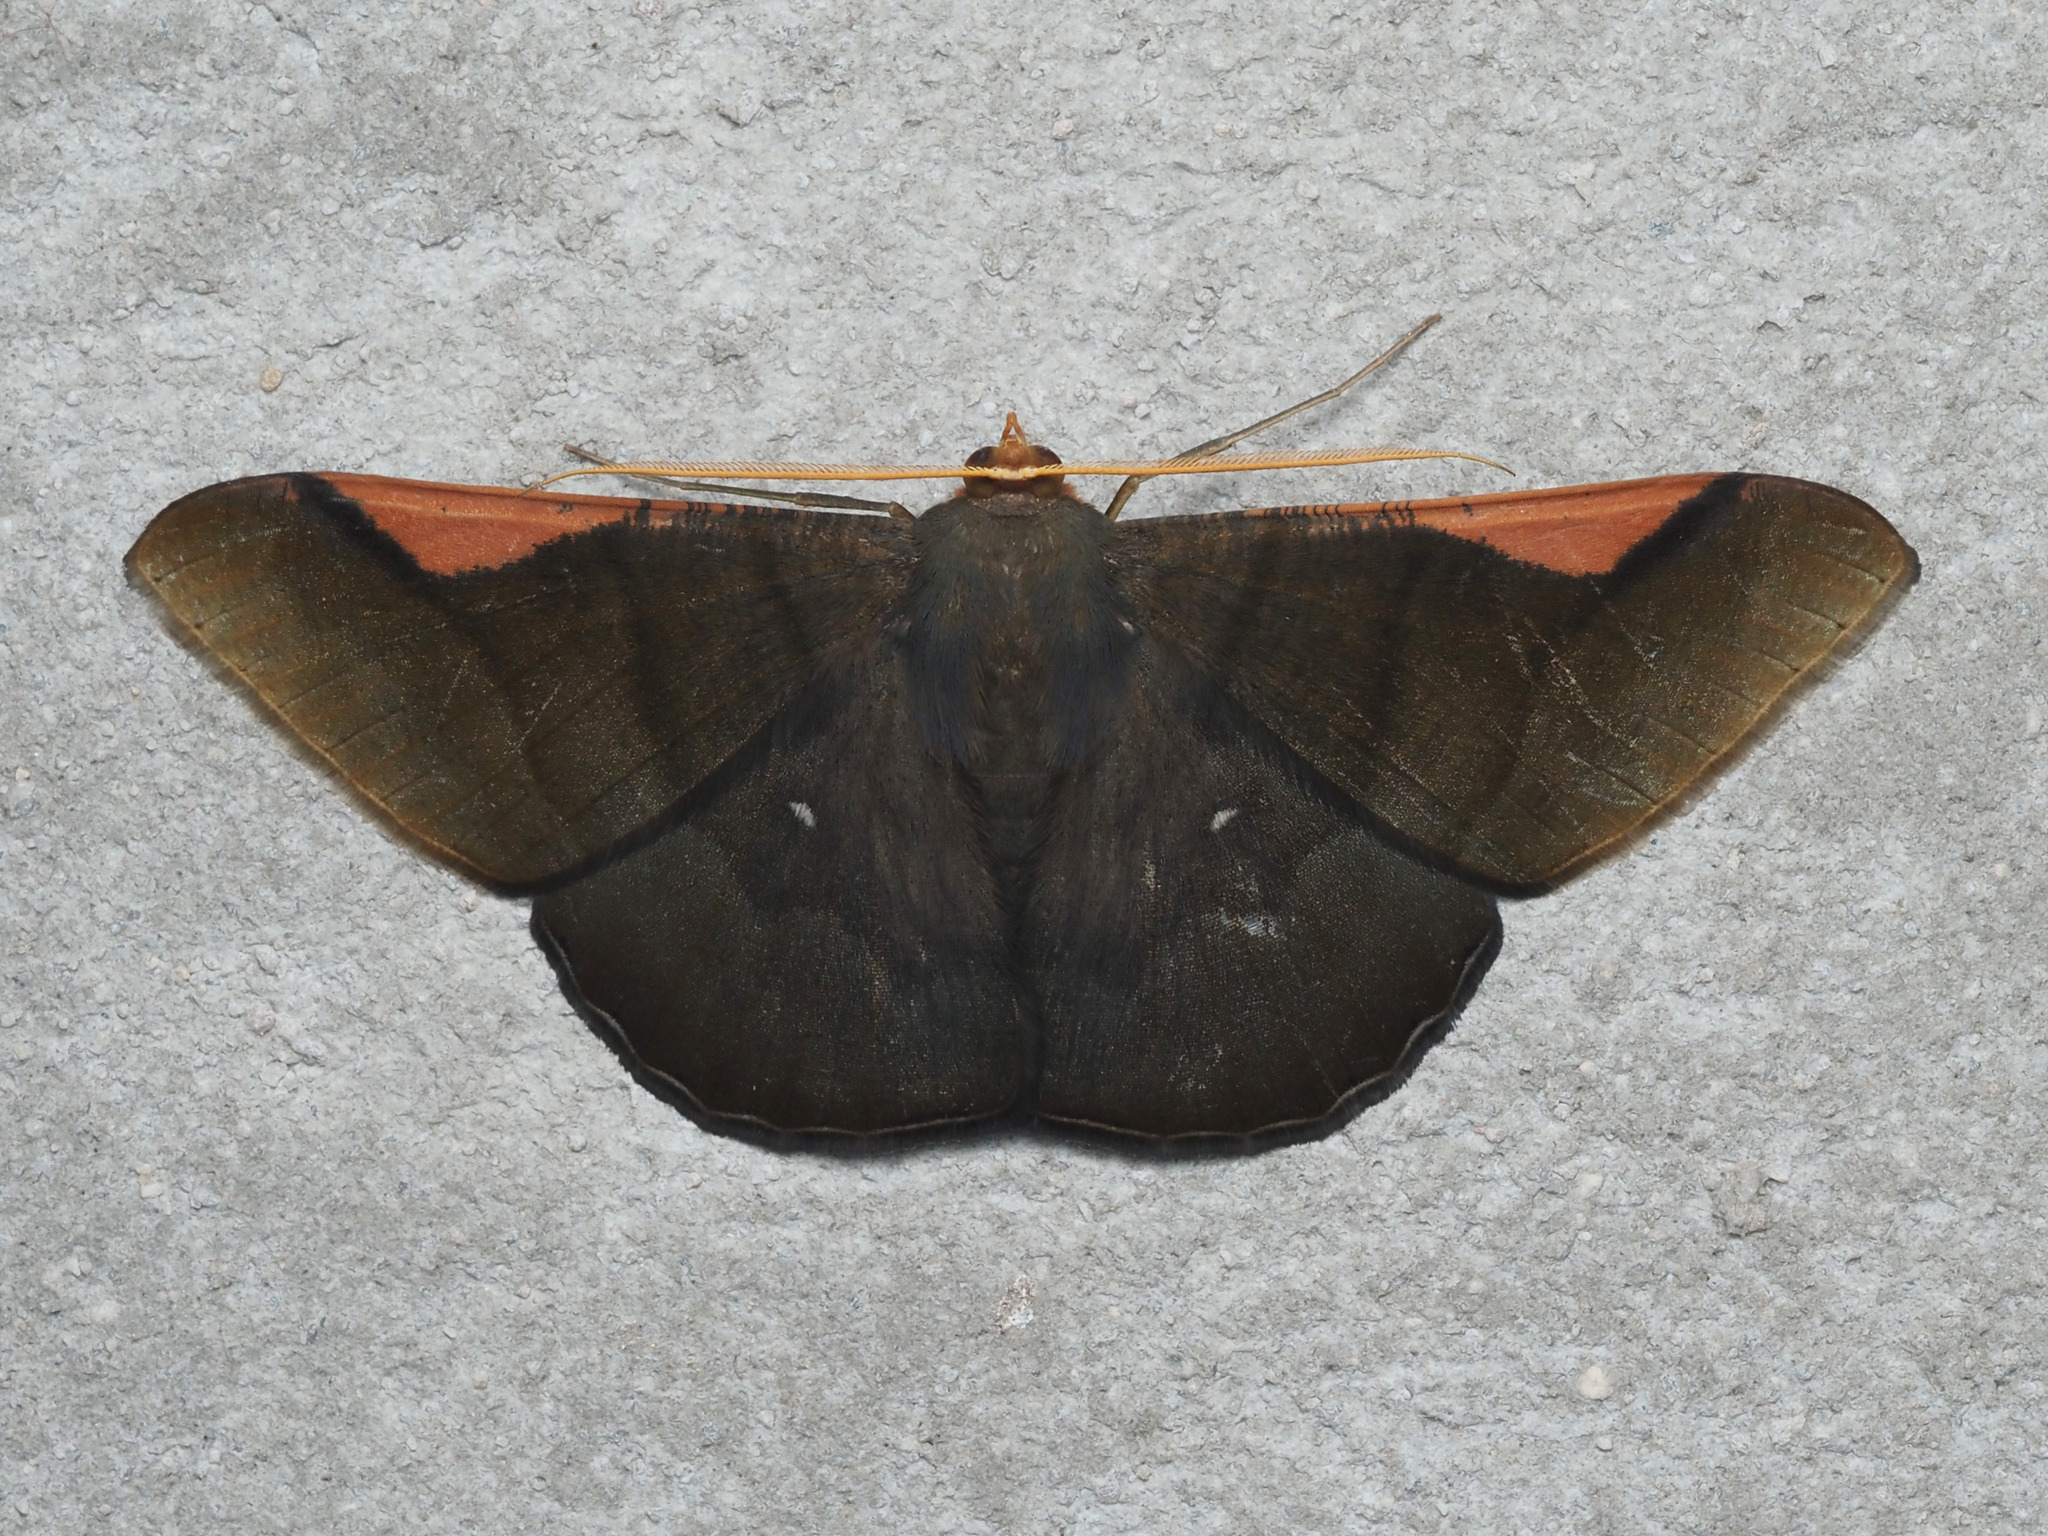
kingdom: Animalia
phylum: Arthropoda
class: Insecta
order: Lepidoptera
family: Geometridae
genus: Sphacelodes
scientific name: Sphacelodes vulneraria
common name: Looper moth
